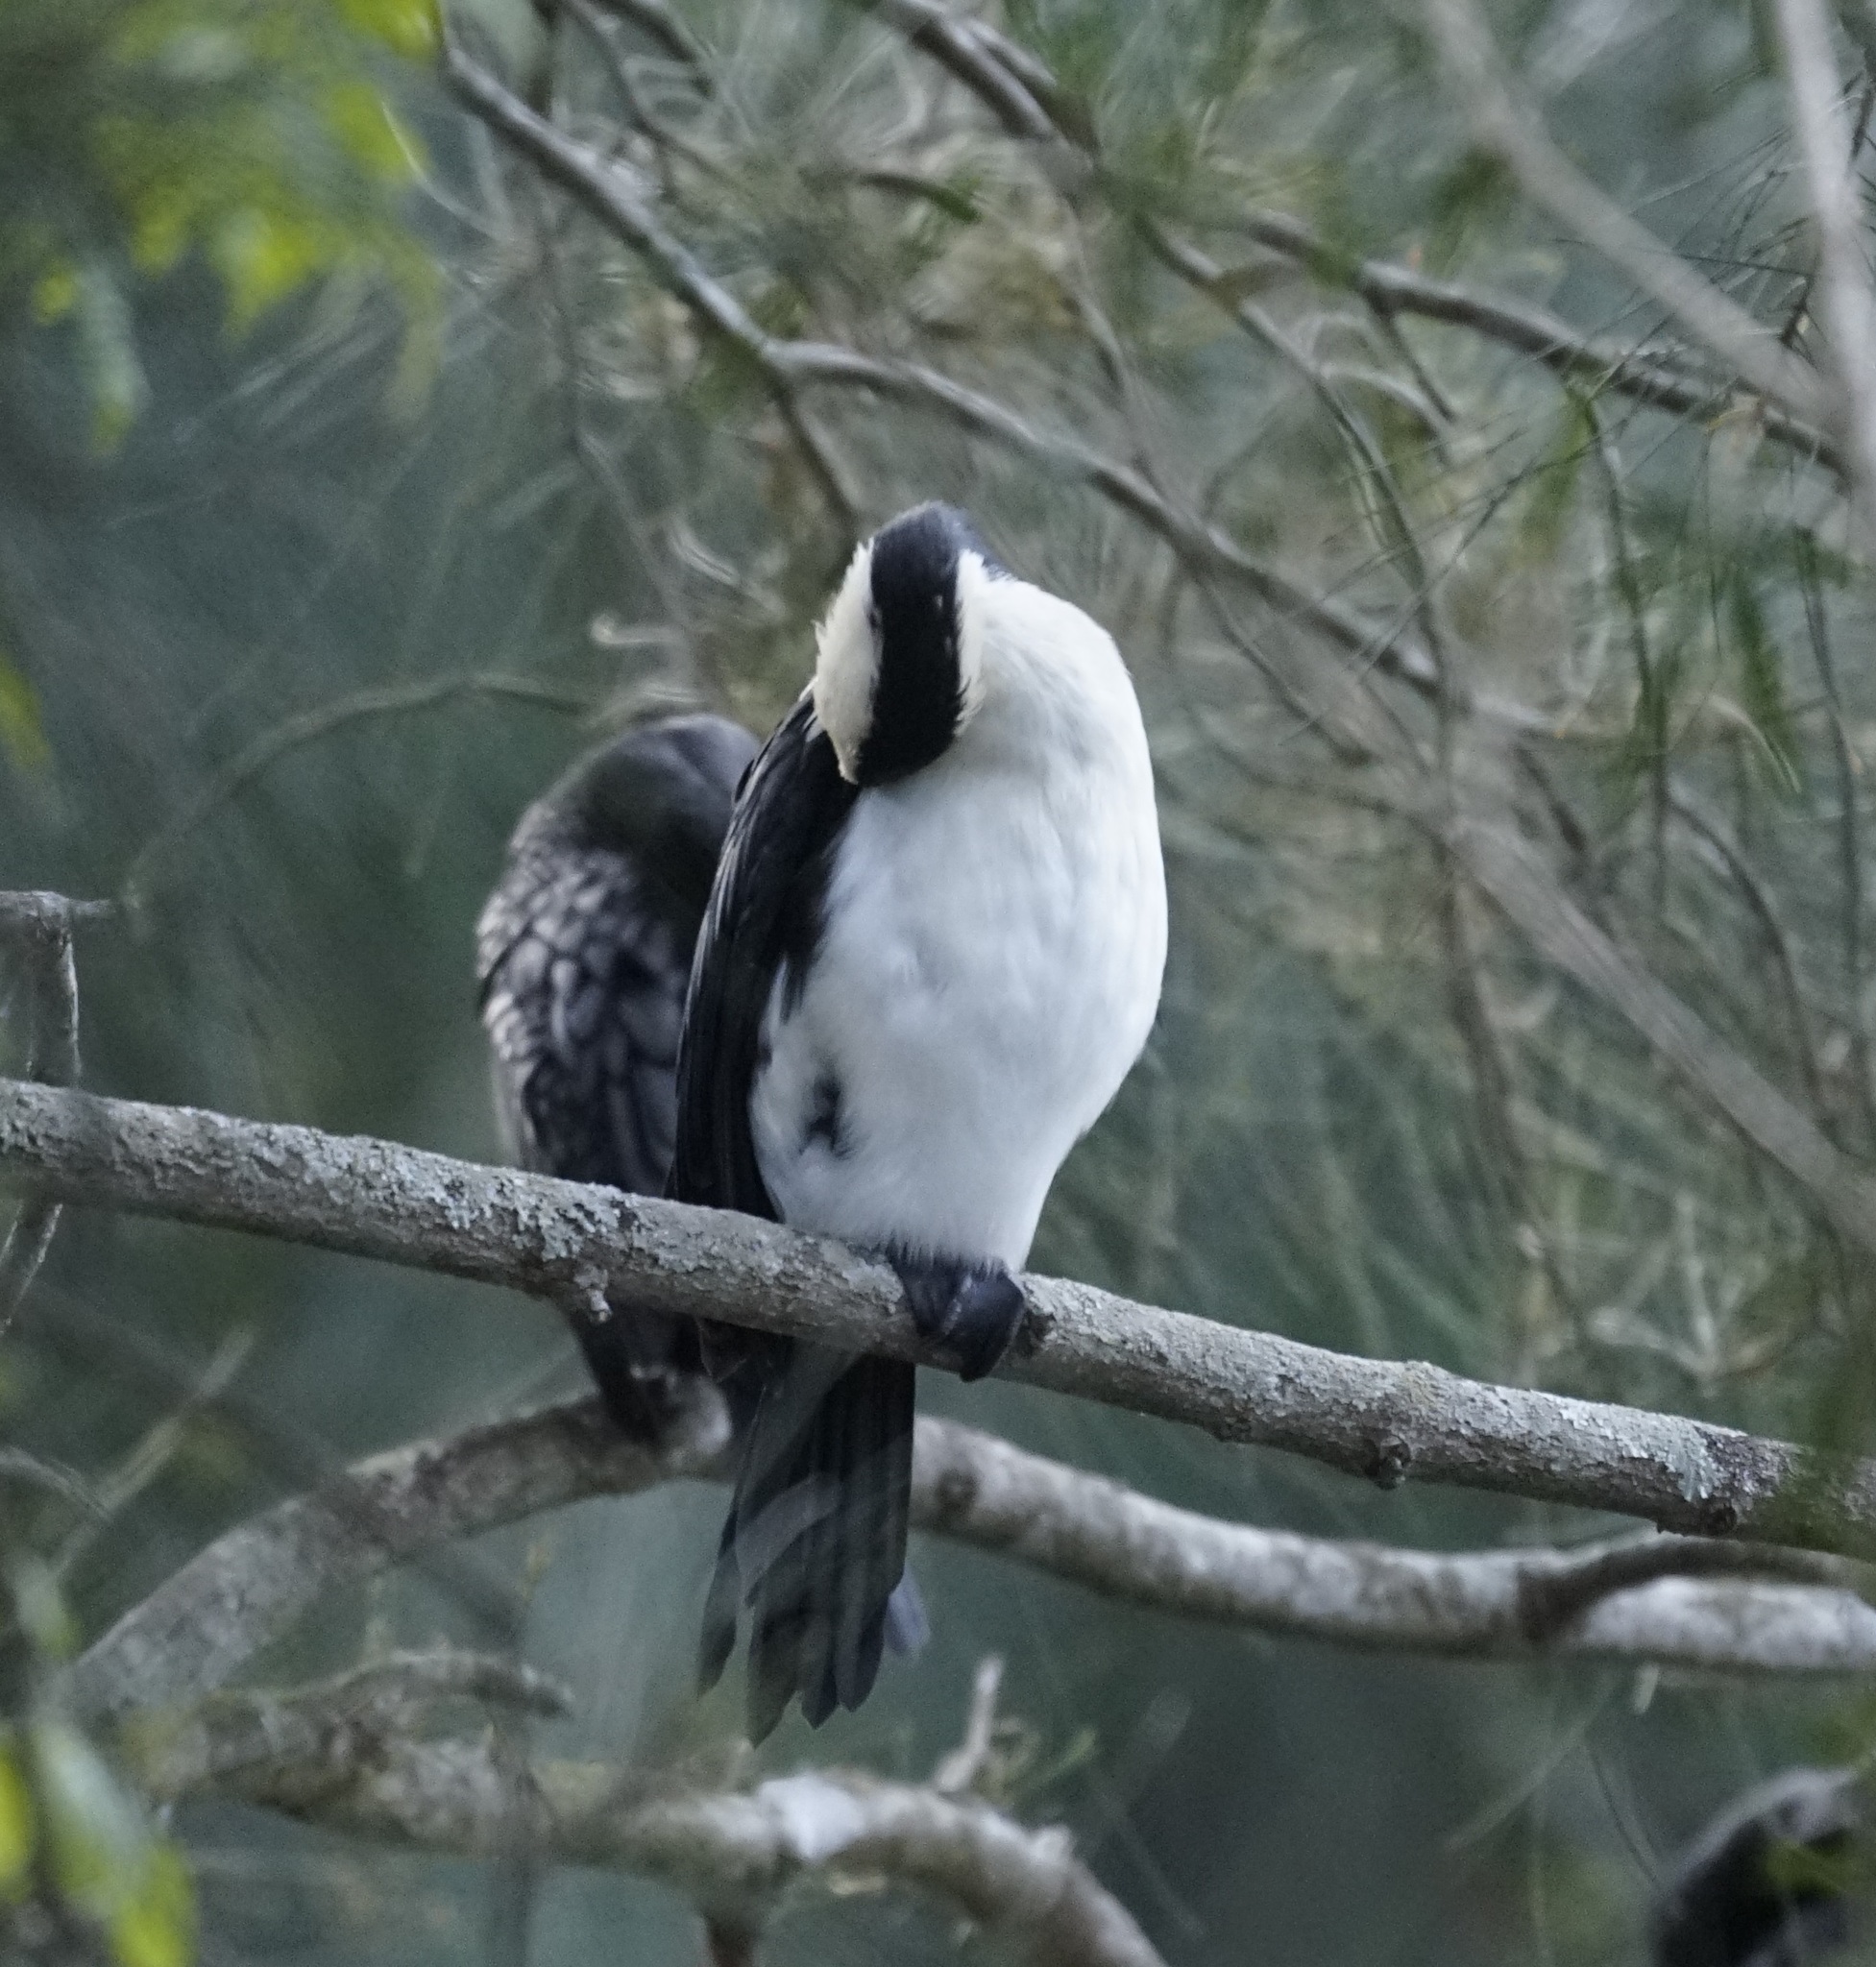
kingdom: Animalia
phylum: Chordata
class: Aves
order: Suliformes
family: Phalacrocoracidae
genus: Microcarbo
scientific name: Microcarbo melanoleucos
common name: Little pied cormorant
